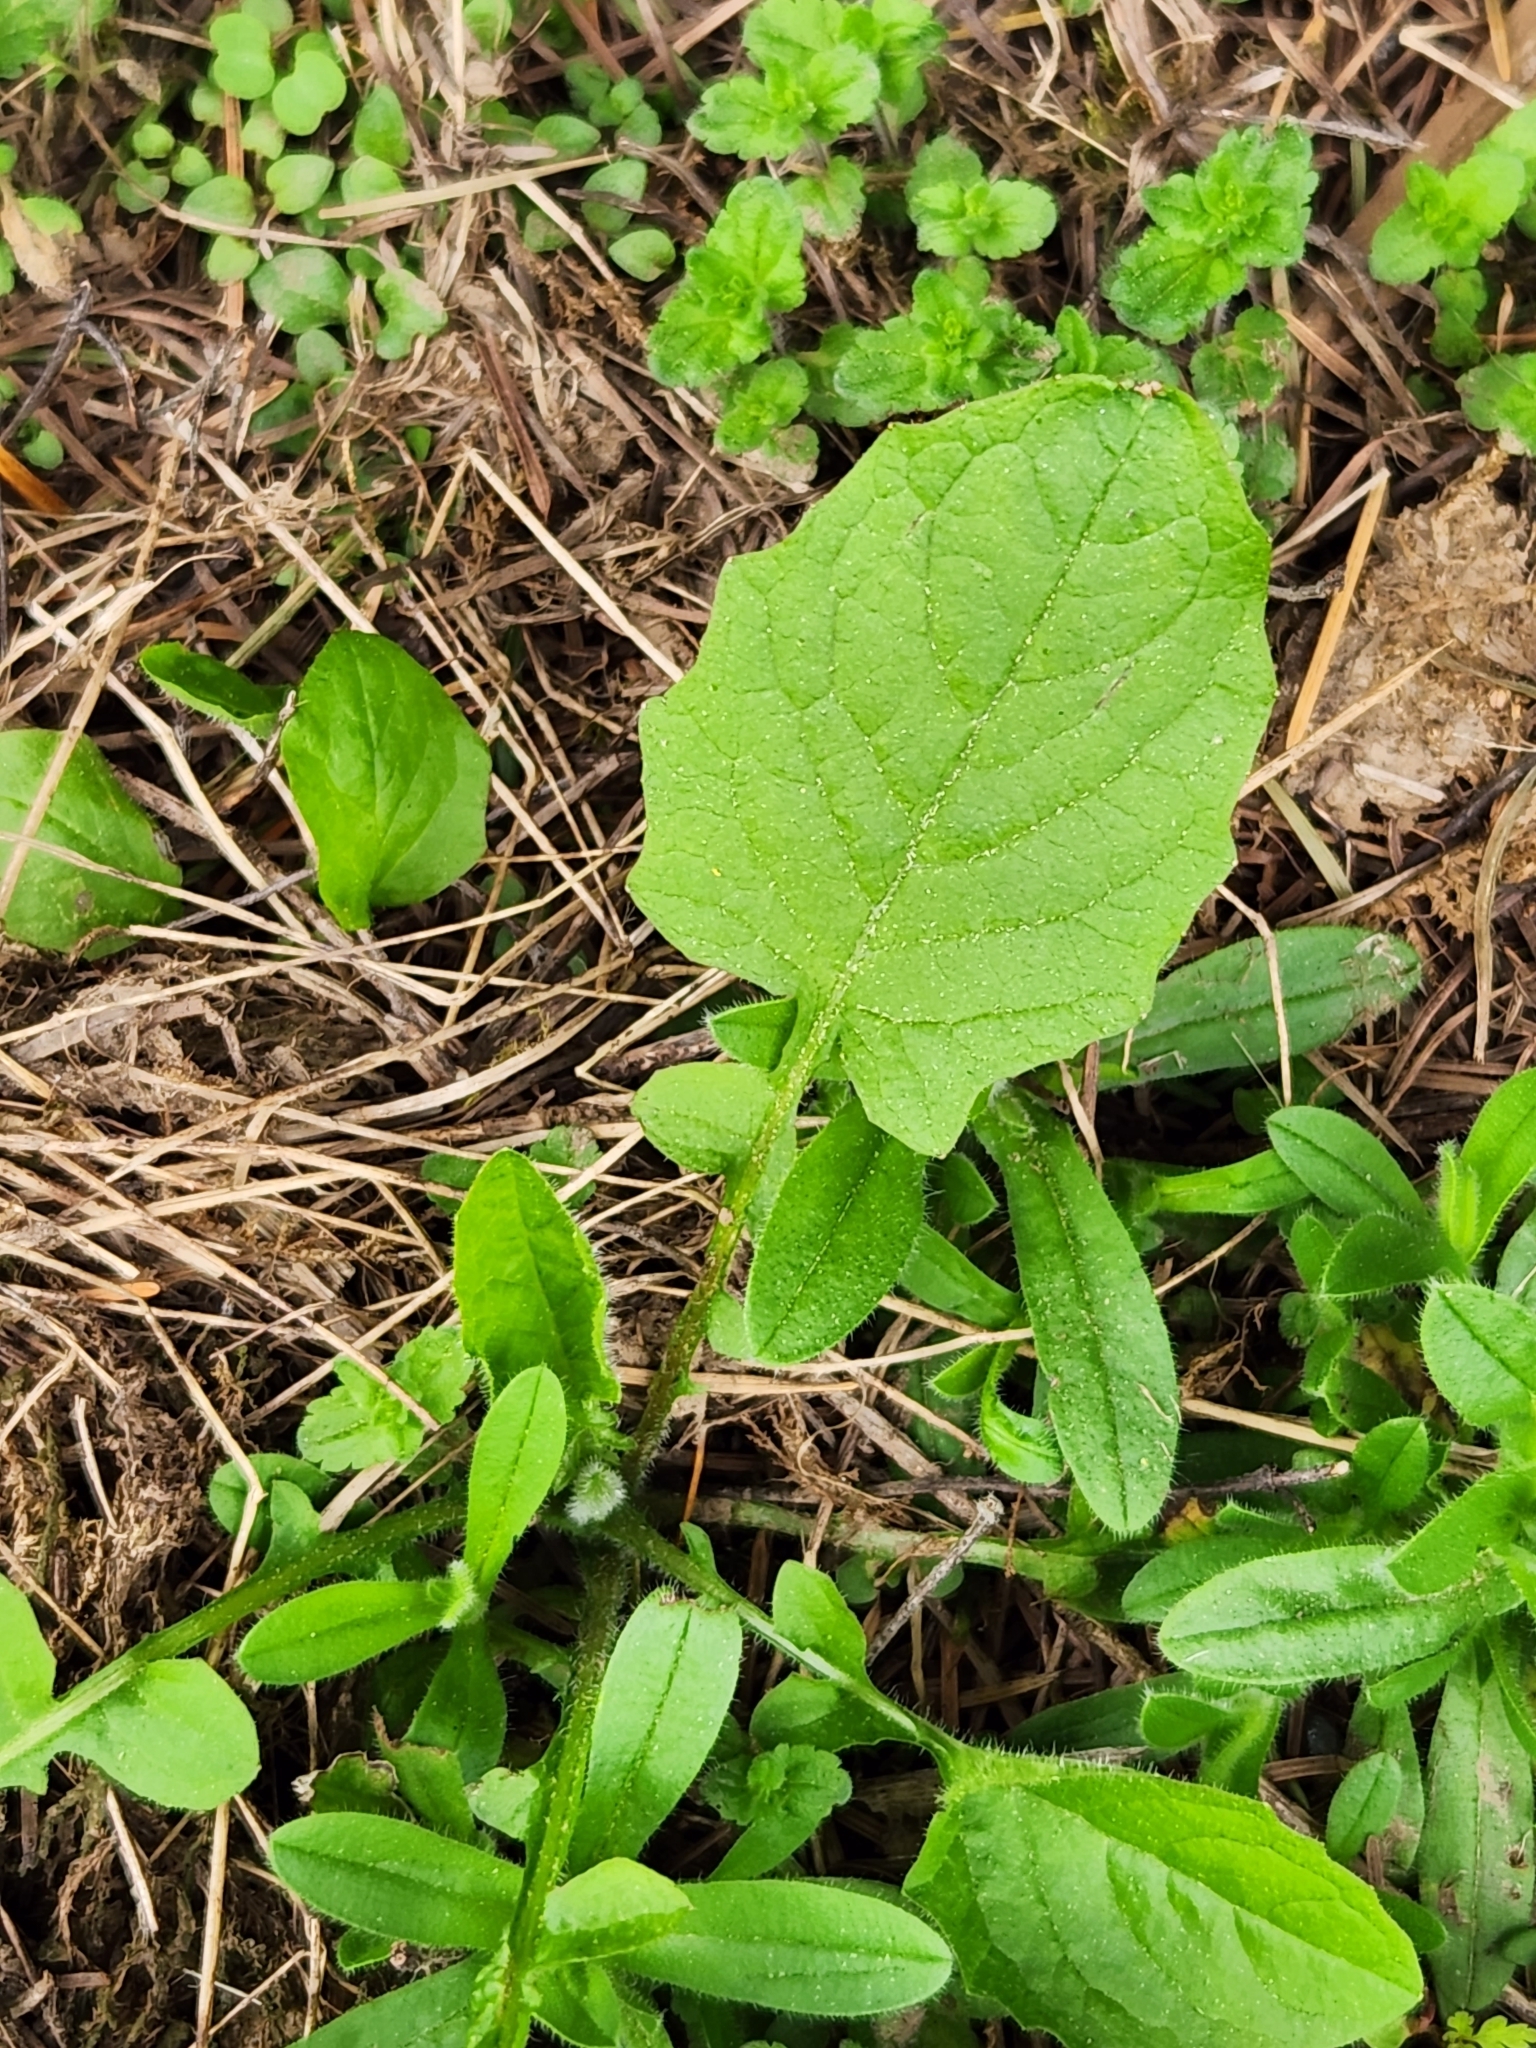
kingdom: Plantae
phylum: Tracheophyta
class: Magnoliopsida
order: Asterales
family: Asteraceae
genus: Lapsana
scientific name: Lapsana communis
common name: Nipplewort
